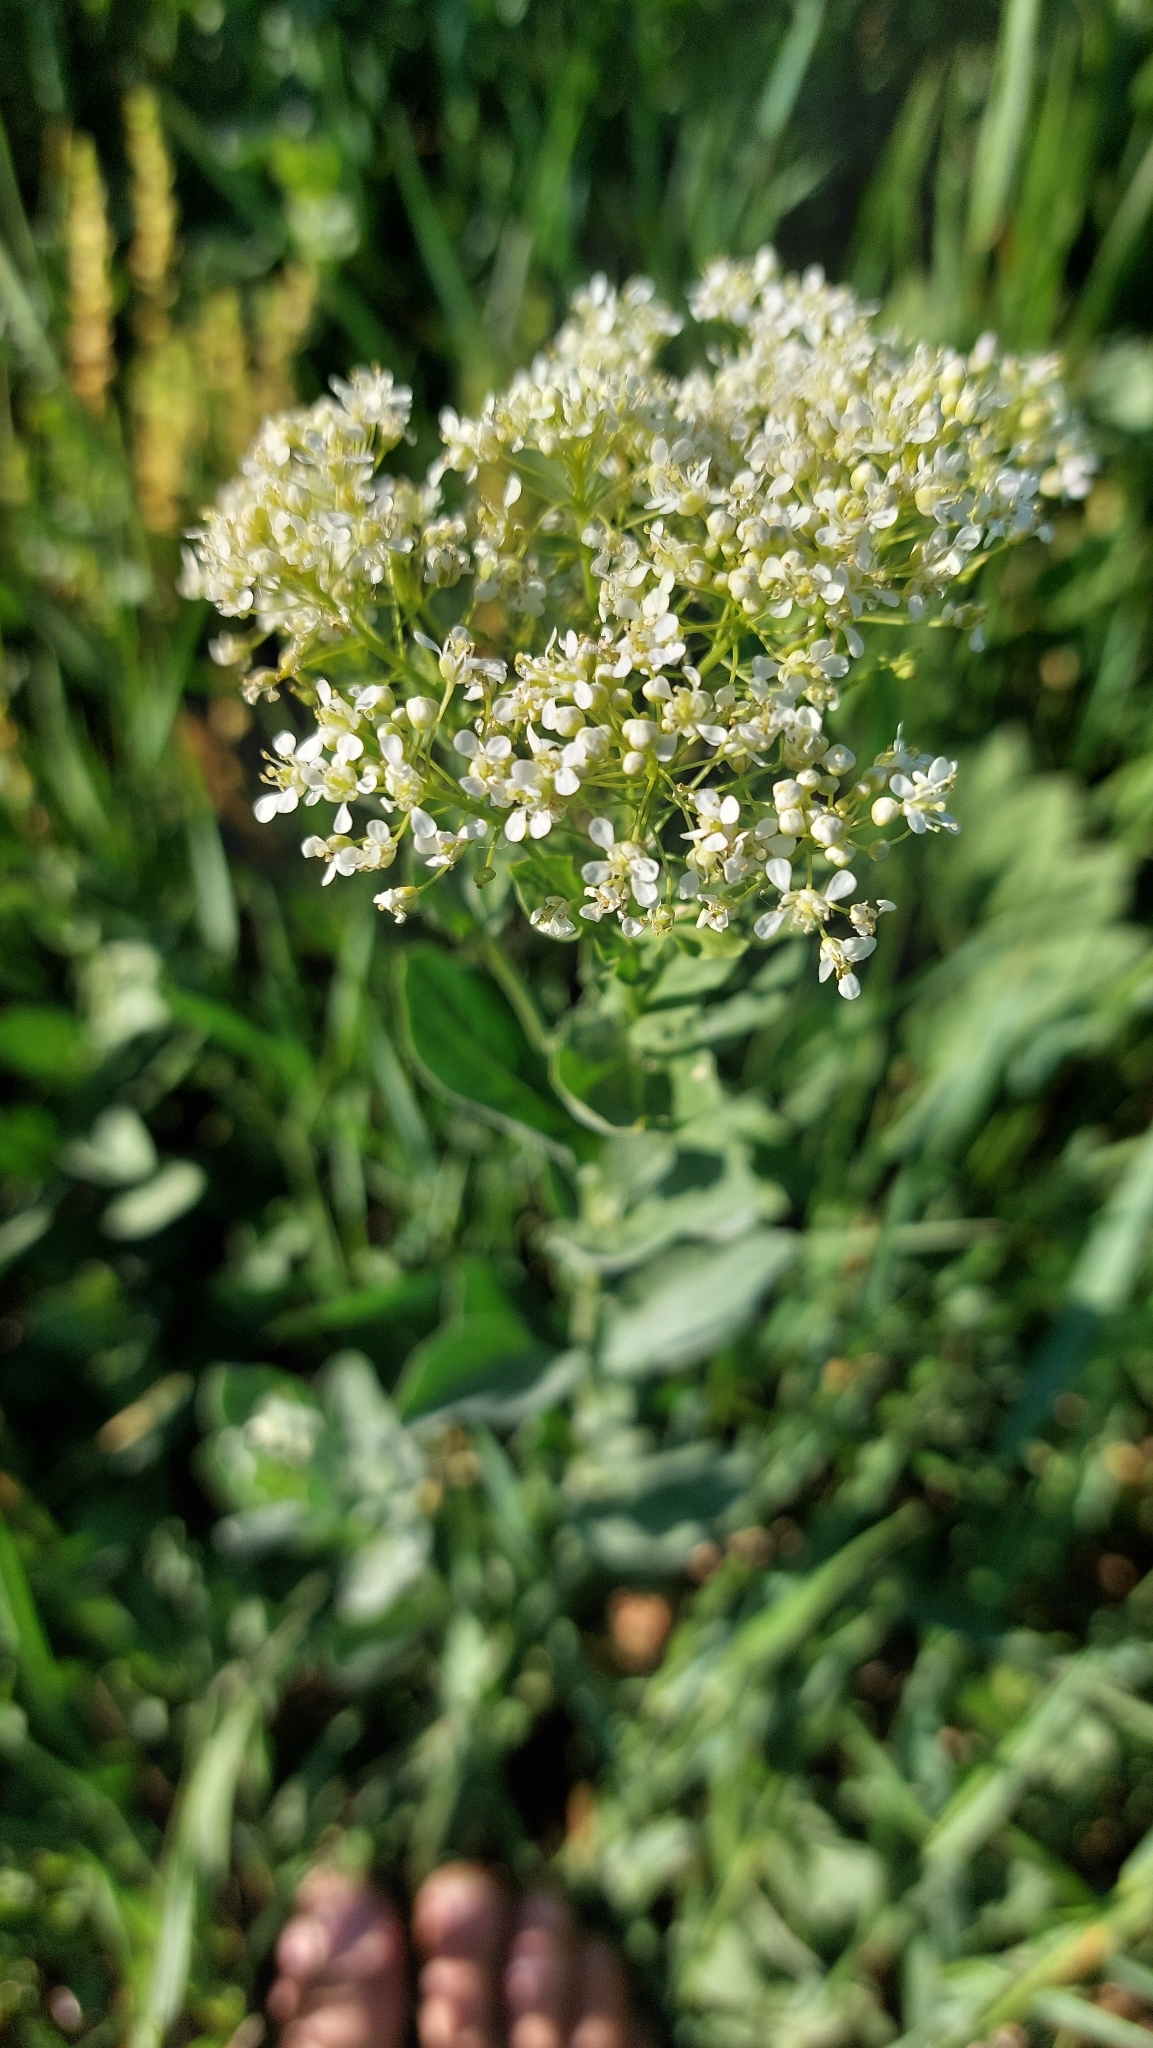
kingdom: Plantae
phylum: Tracheophyta
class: Magnoliopsida
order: Brassicales
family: Brassicaceae
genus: Lepidium
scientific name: Lepidium draba
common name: Hoary cress
